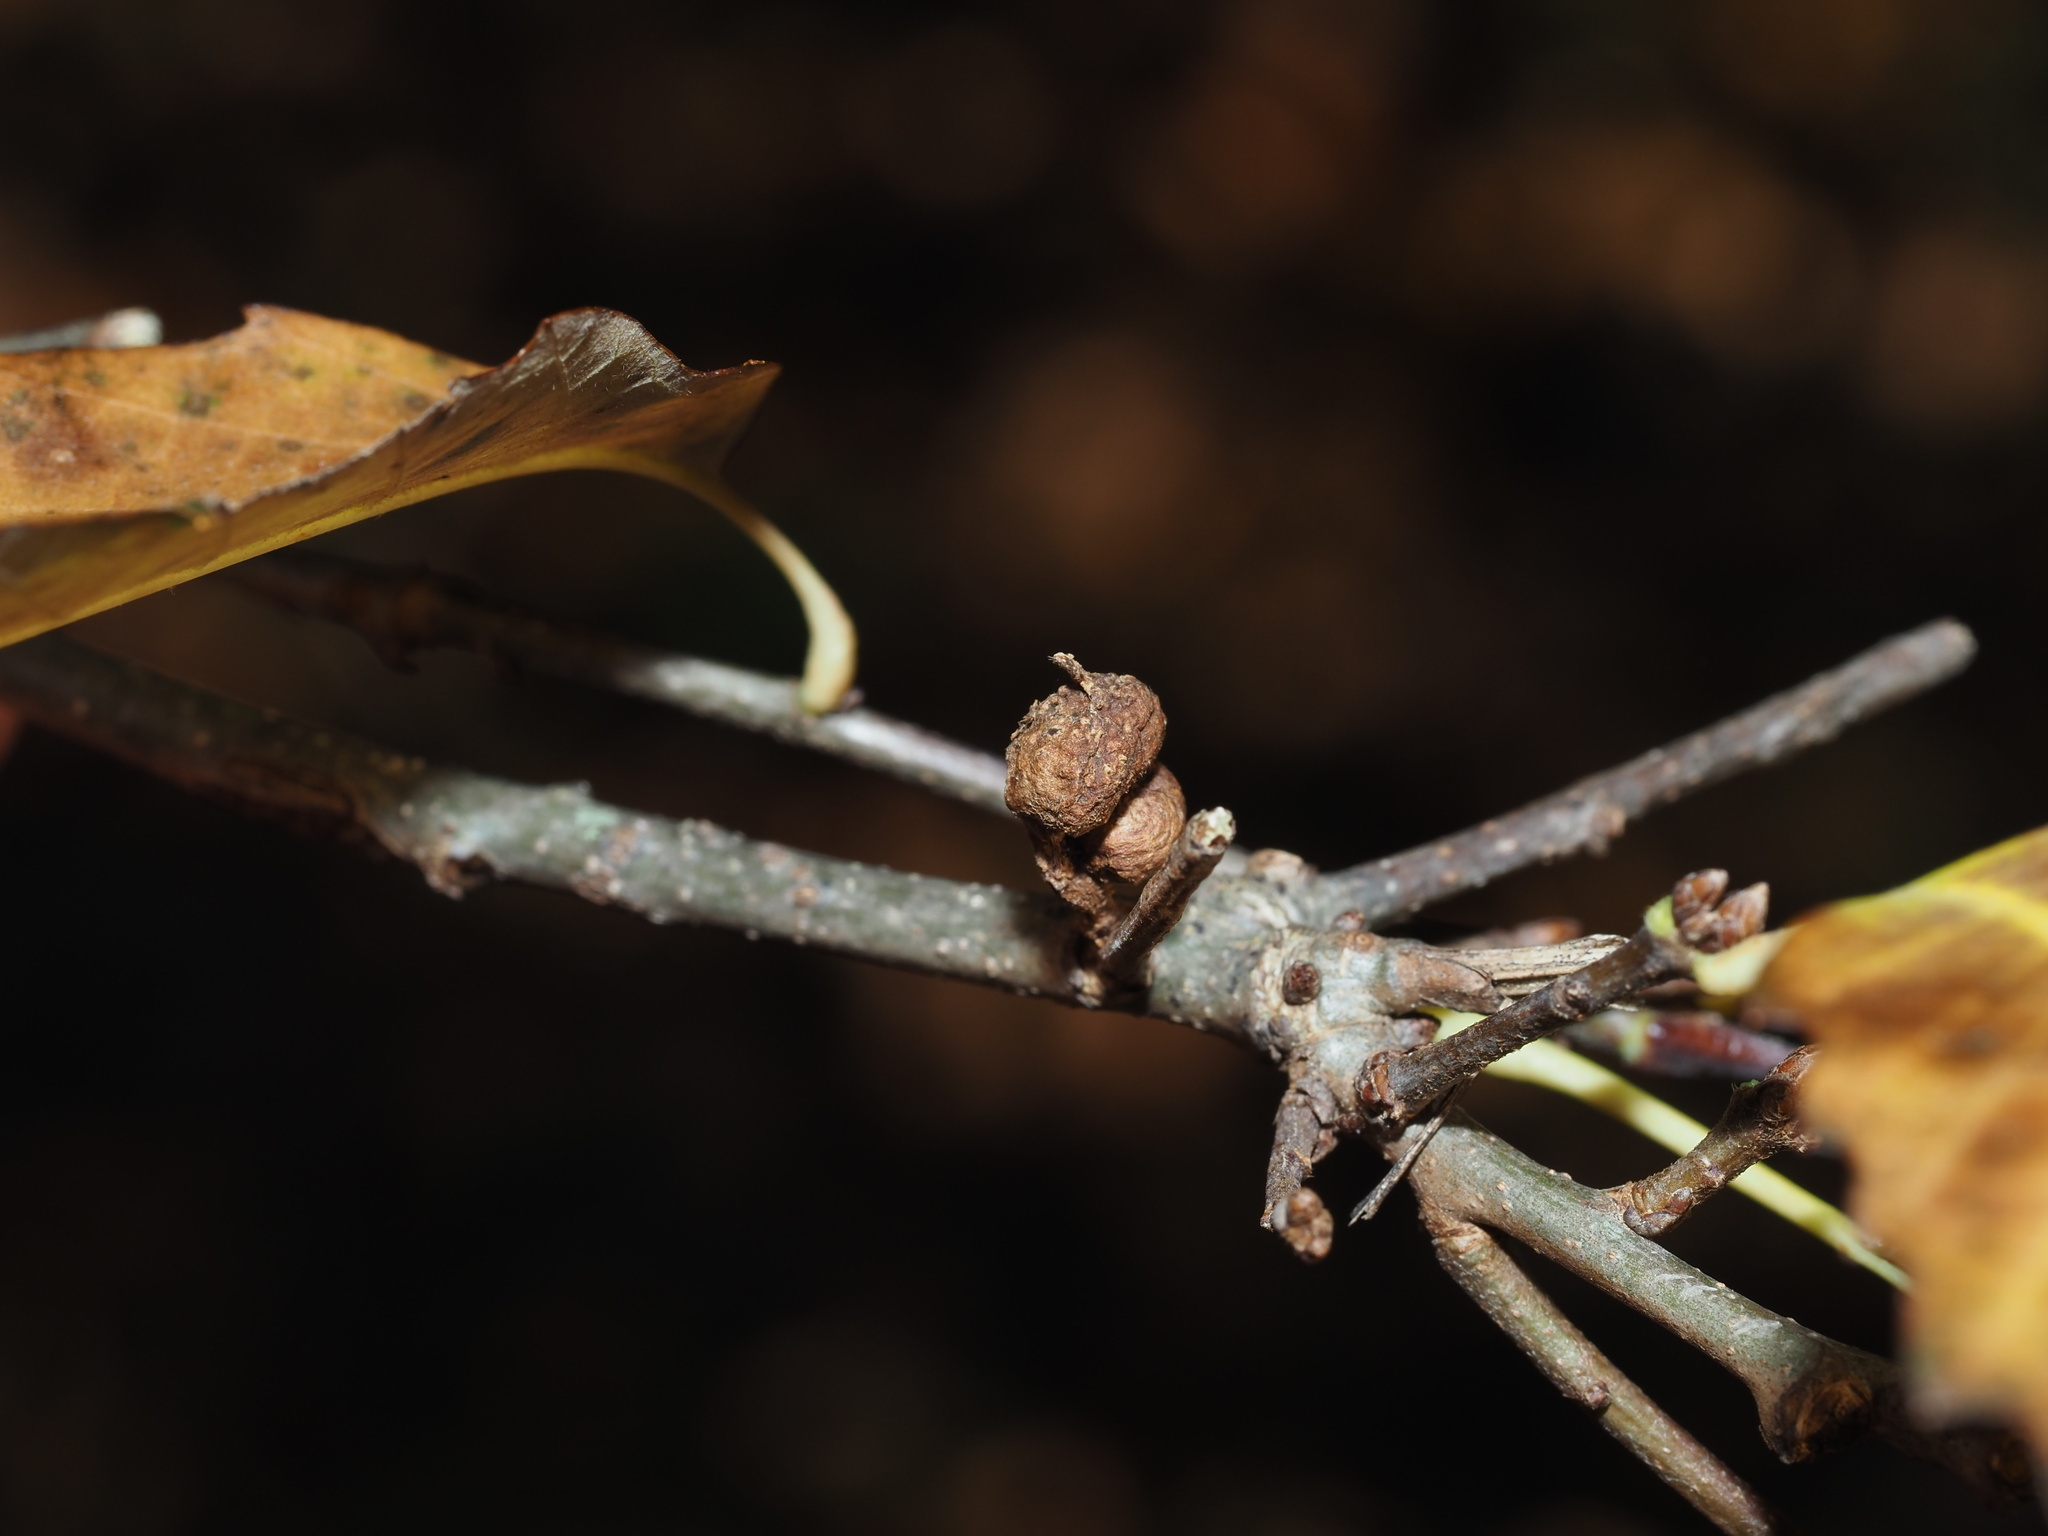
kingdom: Animalia
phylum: Arthropoda
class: Insecta
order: Hymenoptera
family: Cynipidae
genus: Andricus
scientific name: Andricus
